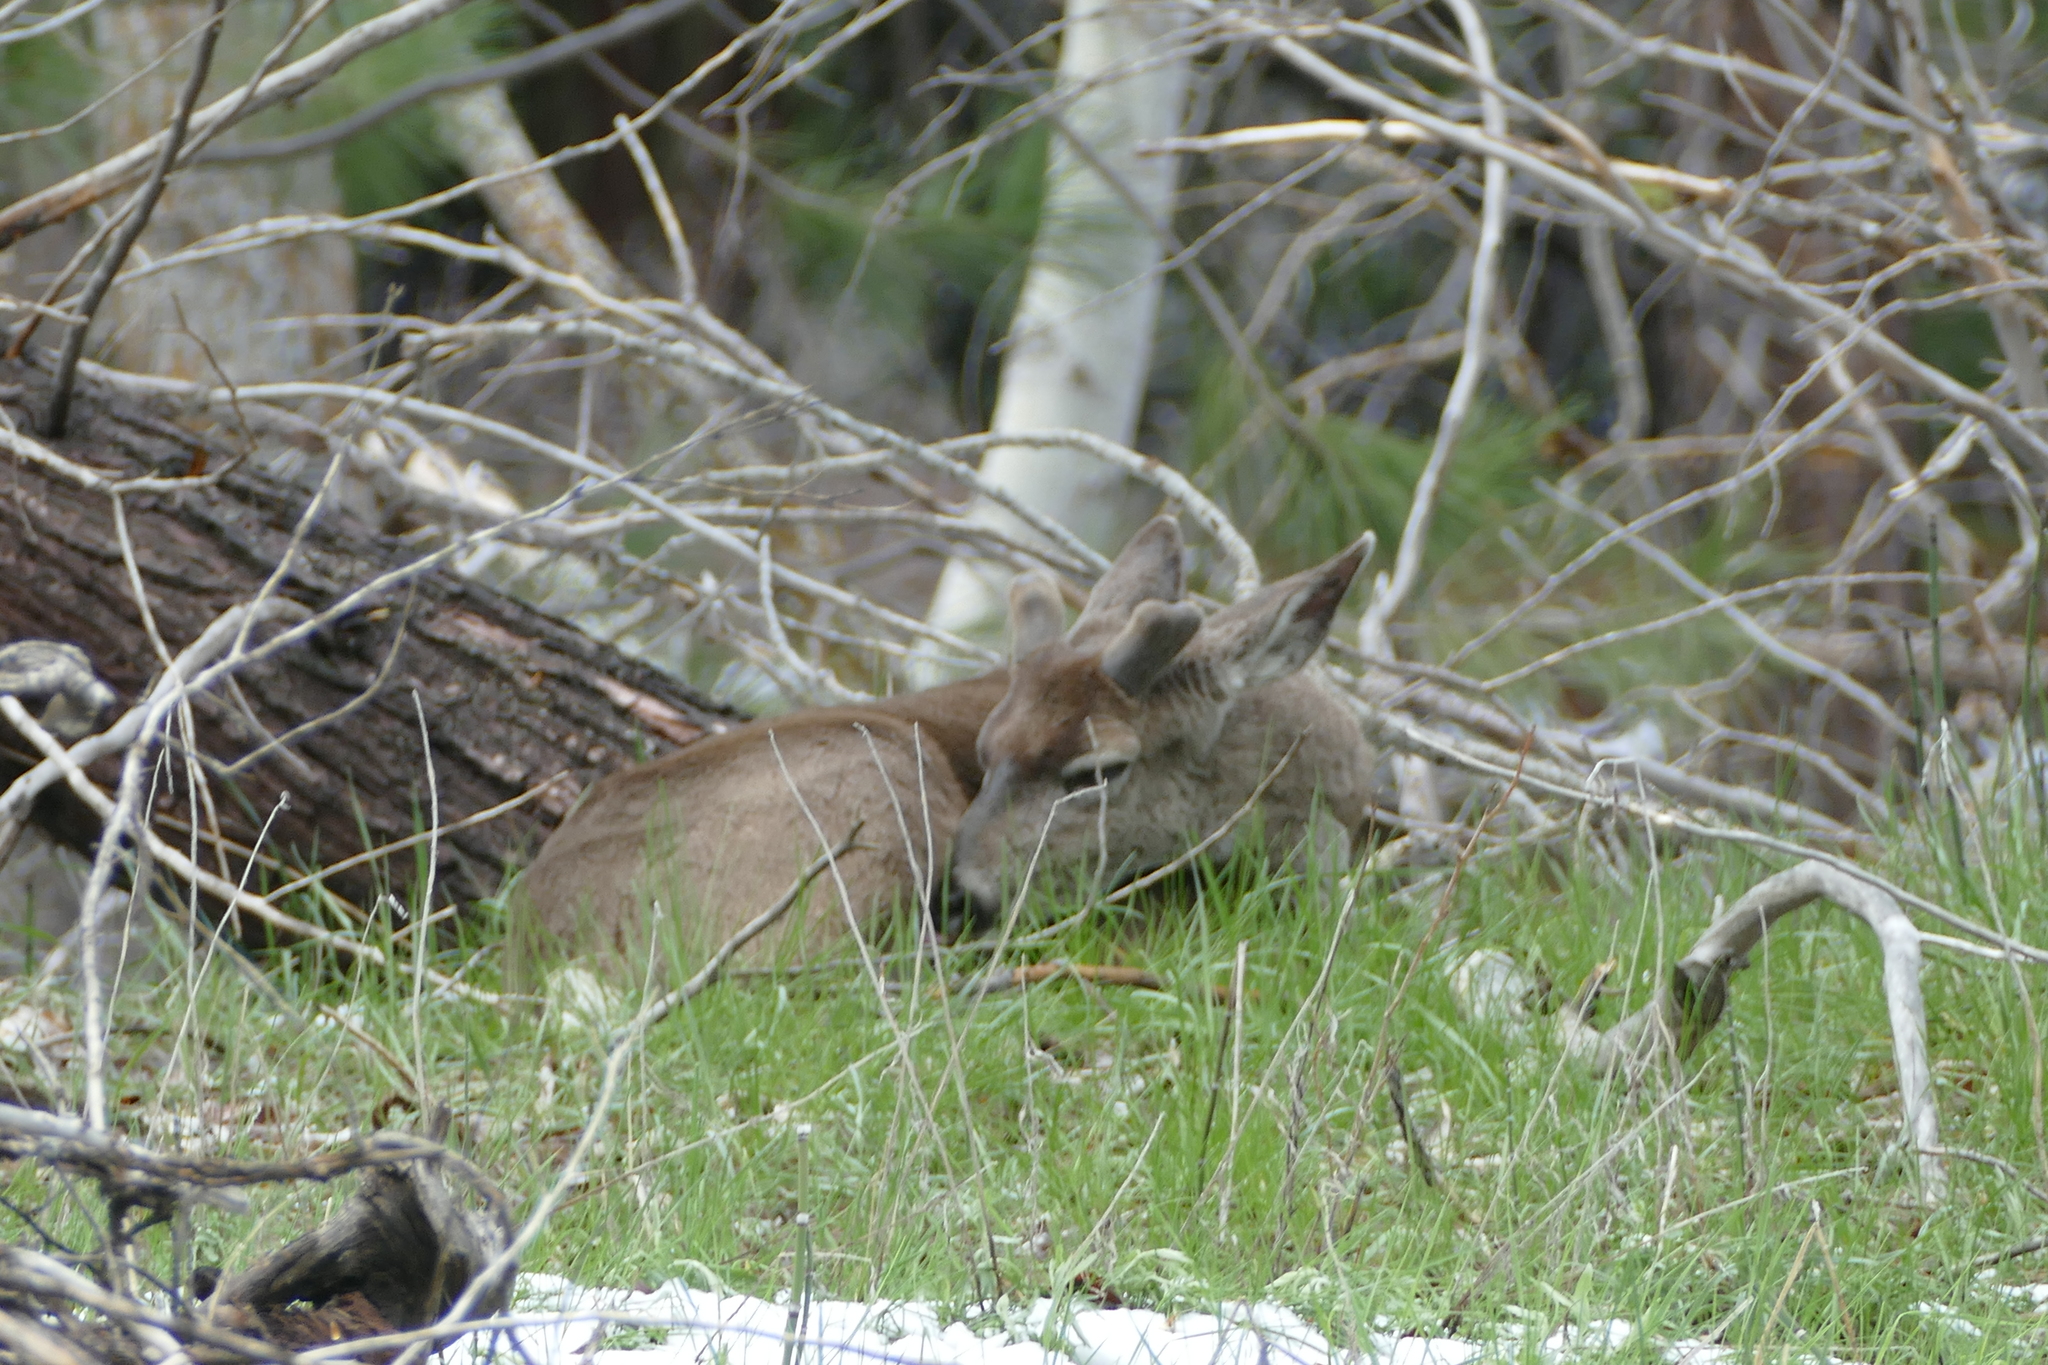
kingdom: Animalia
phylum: Chordata
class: Mammalia
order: Artiodactyla
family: Cervidae
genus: Odocoileus
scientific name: Odocoileus hemionus
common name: Mule deer
